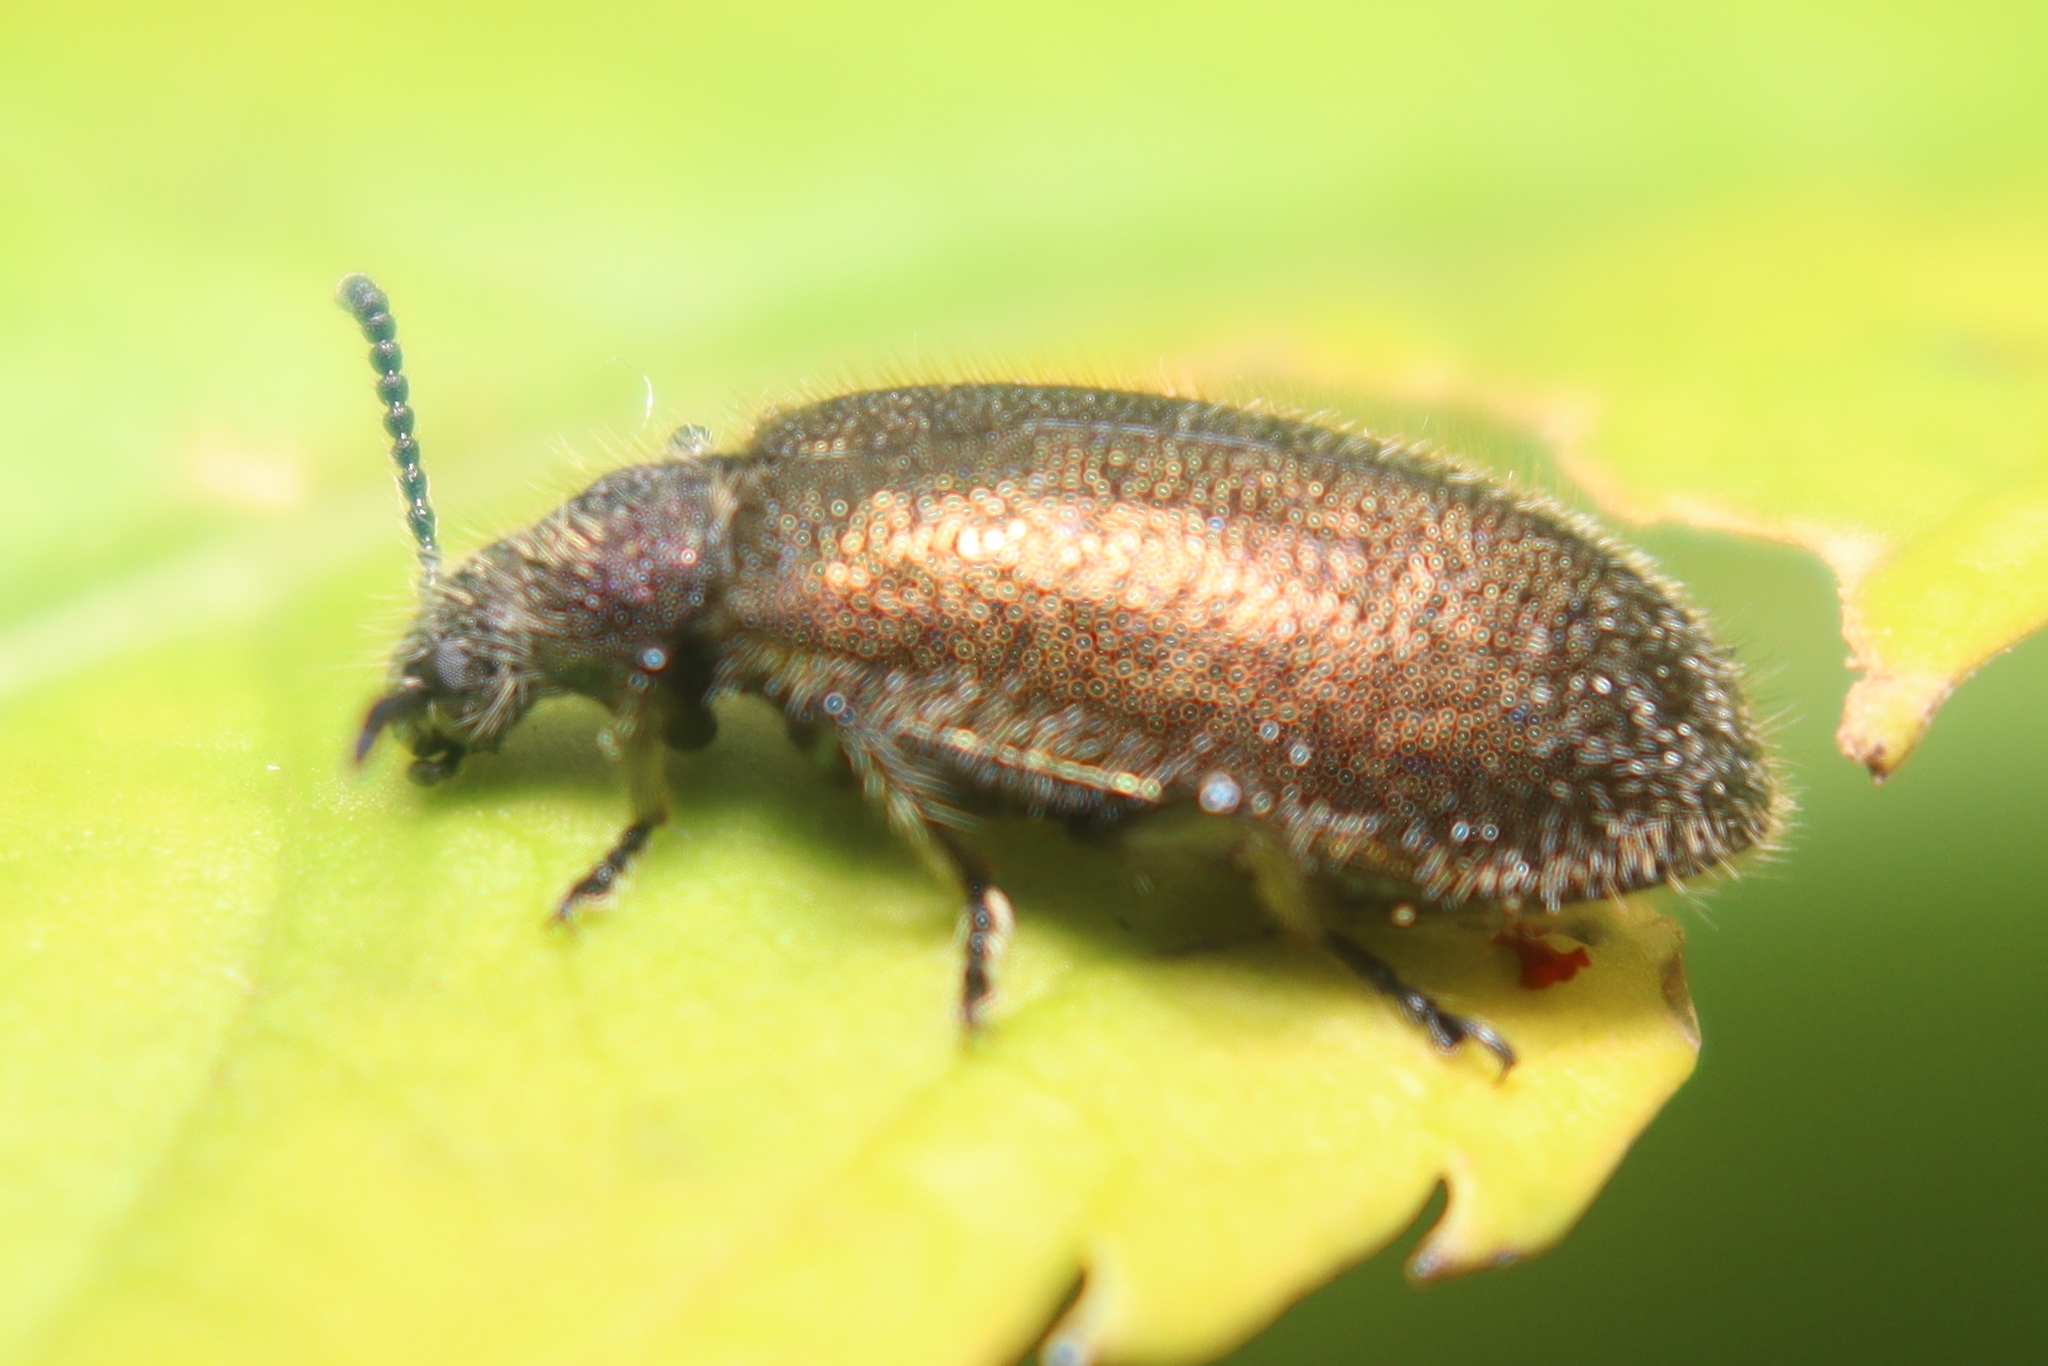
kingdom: Animalia
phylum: Arthropoda
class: Insecta
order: Coleoptera
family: Tenebrionidae
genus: Lagria
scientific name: Lagria villosa
